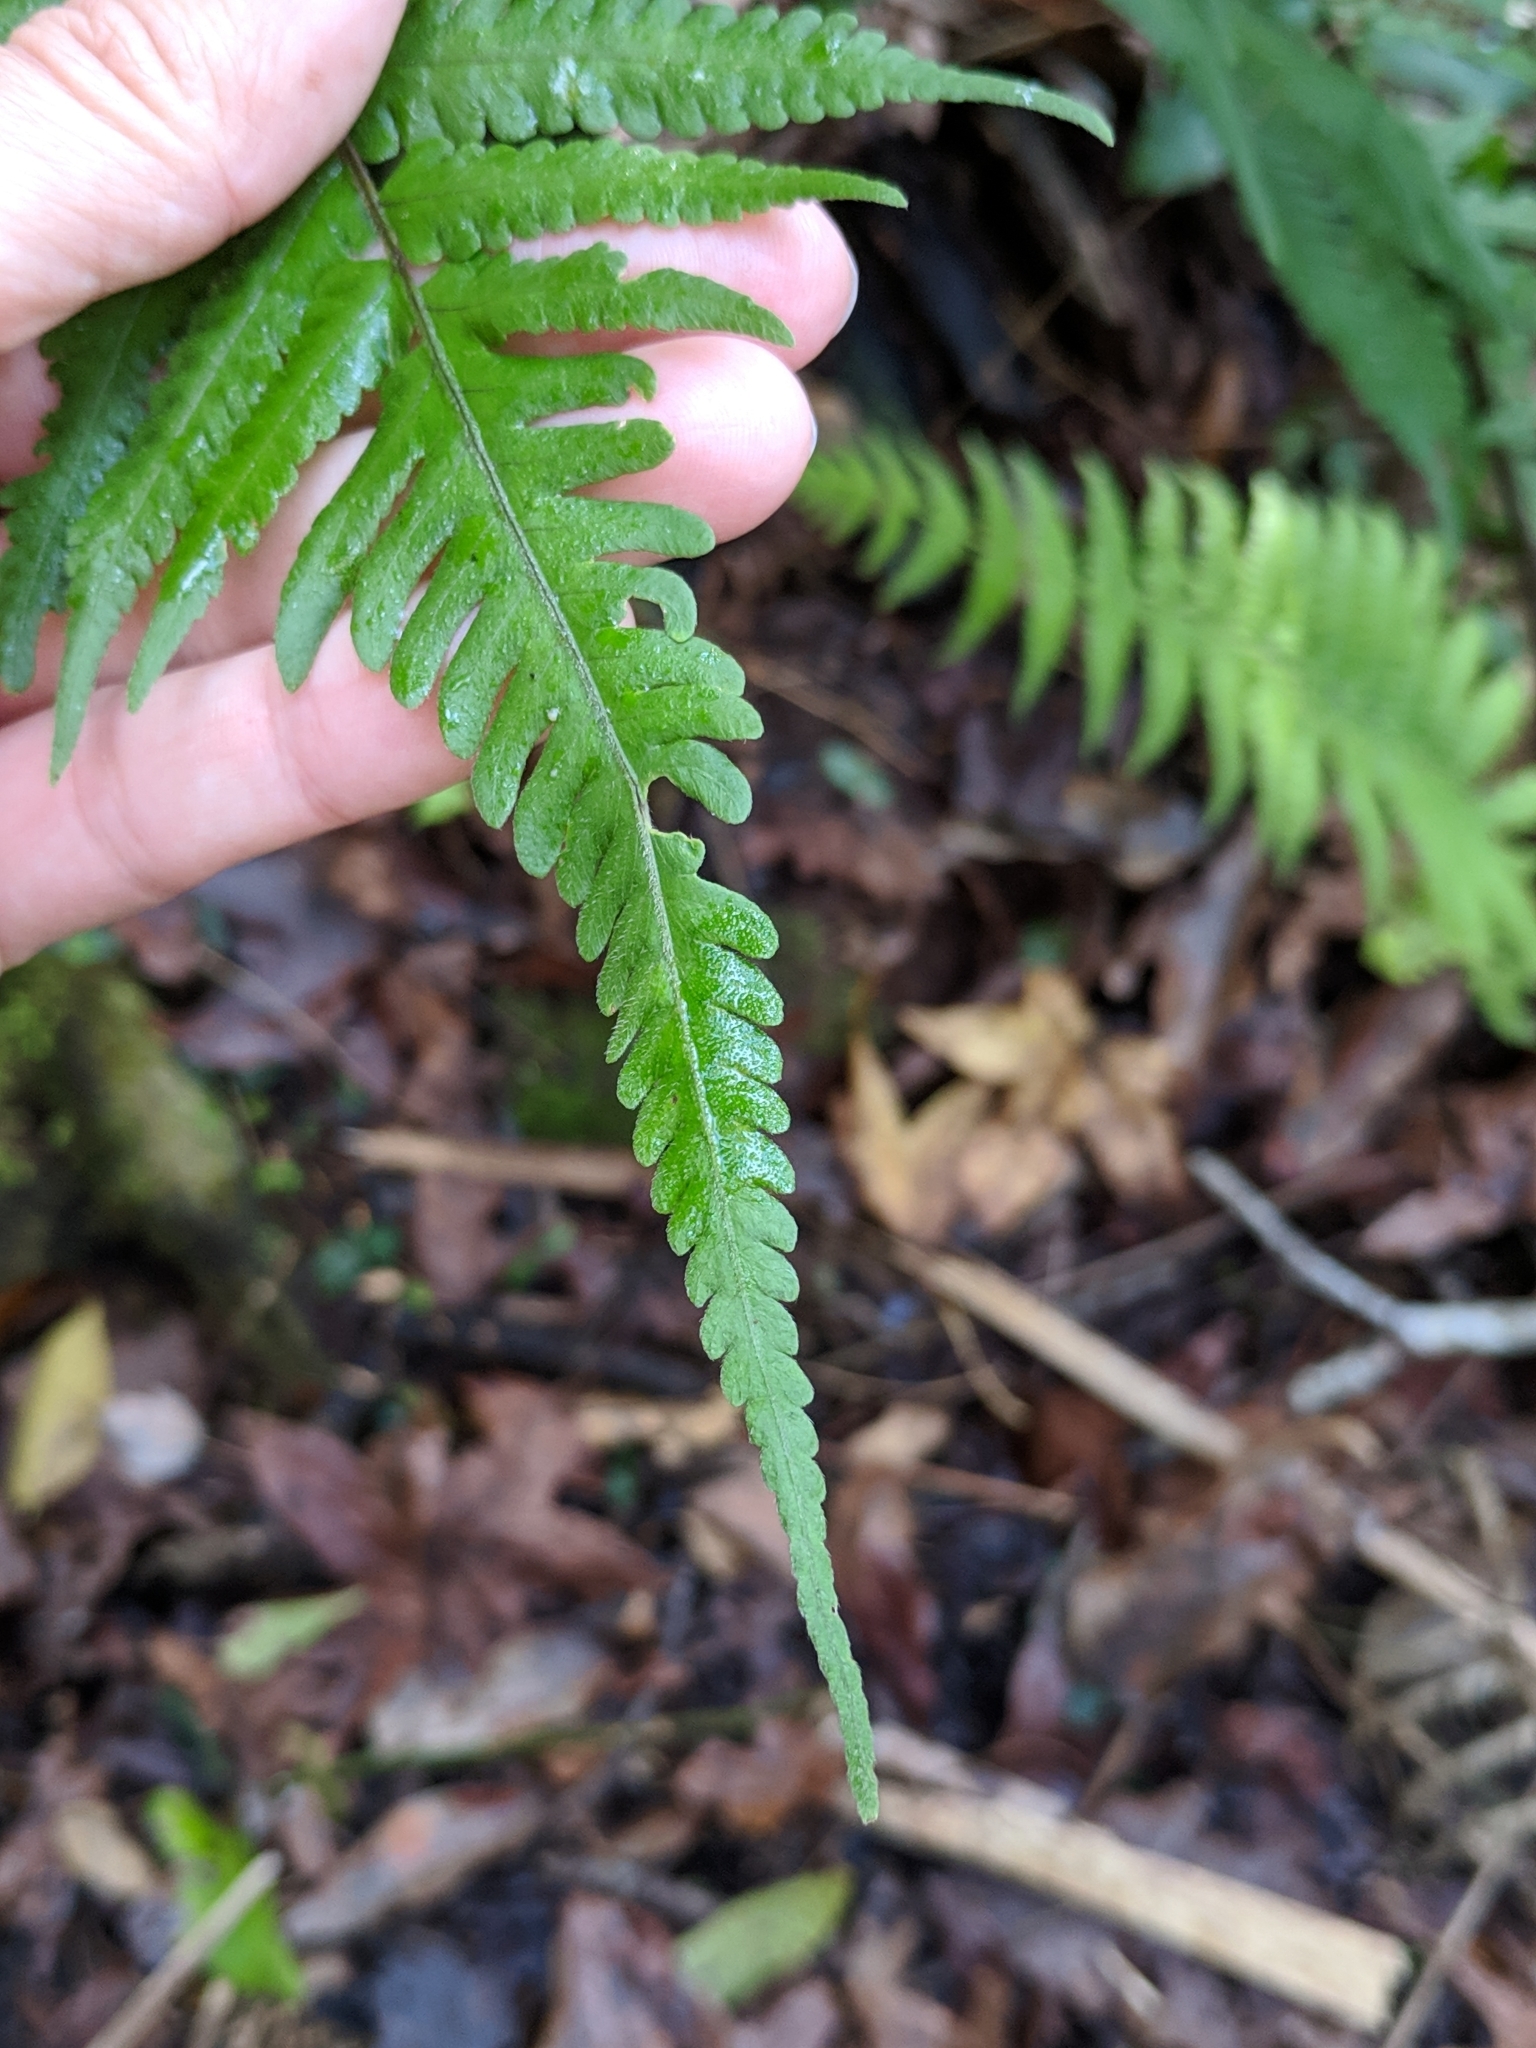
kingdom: Plantae
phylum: Tracheophyta
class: Polypodiopsida
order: Polypodiales
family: Thelypteridaceae
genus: Christella
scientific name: Christella dentata
